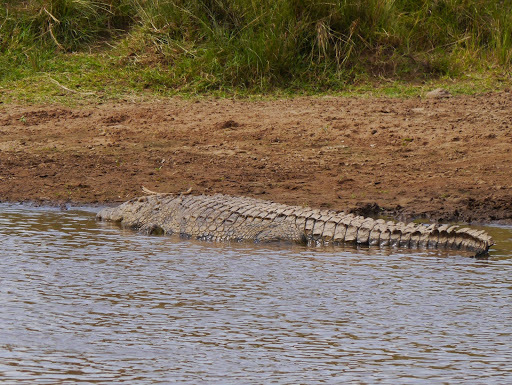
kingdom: Animalia
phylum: Chordata
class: Crocodylia
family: Crocodylidae
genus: Crocodylus
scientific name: Crocodylus niloticus
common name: Nile crocodile
